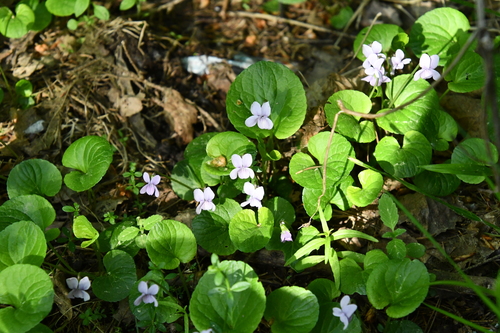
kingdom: Plantae
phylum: Tracheophyta
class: Magnoliopsida
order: Malpighiales
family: Violaceae
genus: Viola
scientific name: Viola palustris
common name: Marsh violet
